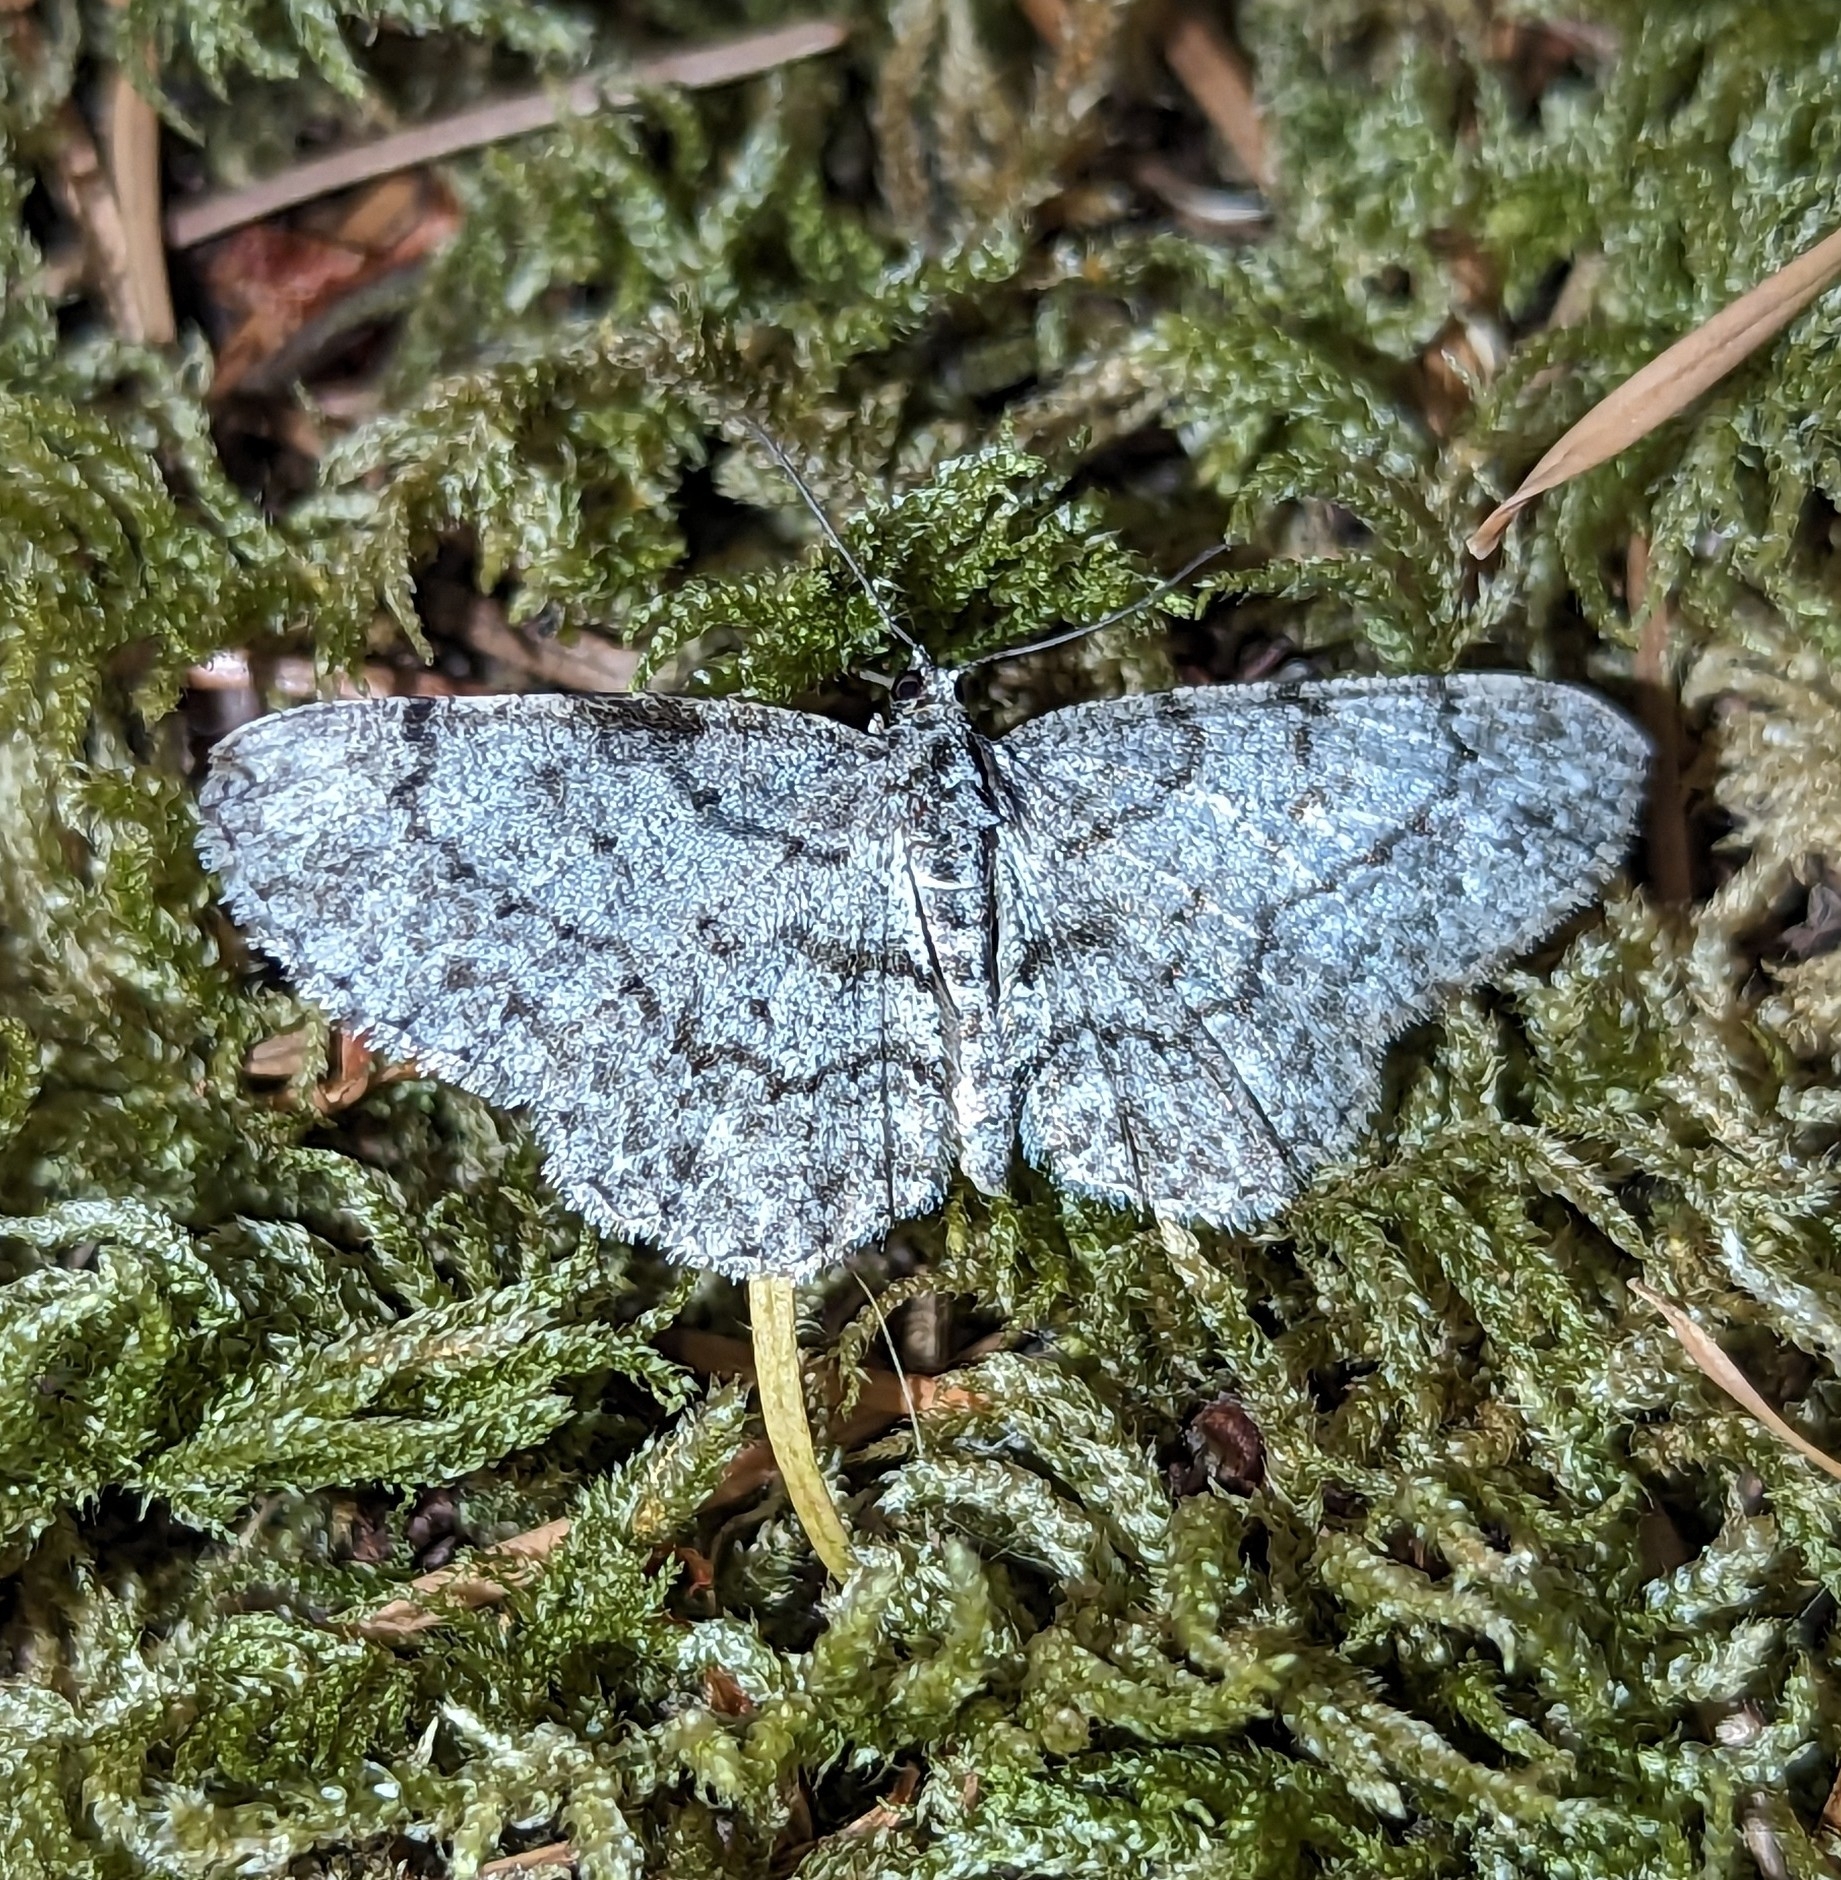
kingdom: Animalia
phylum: Arthropoda
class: Insecta
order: Lepidoptera
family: Geometridae
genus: Protoboarmia
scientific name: Protoboarmia porcelaria
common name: Porcelain gray
